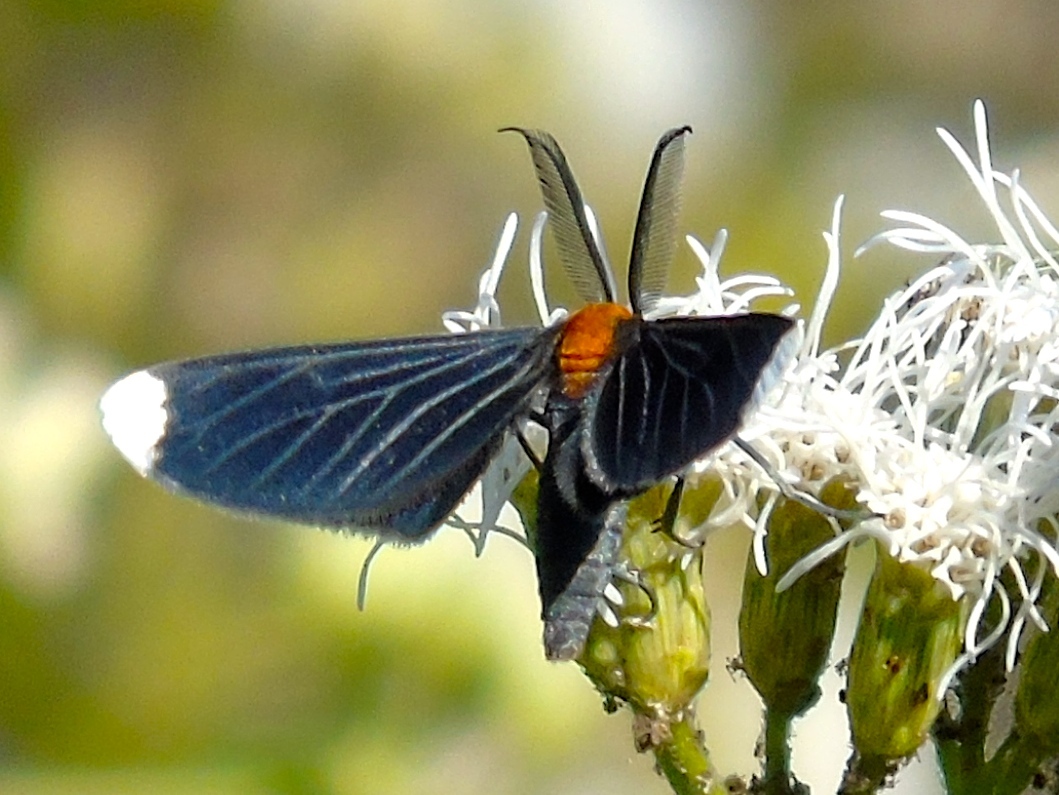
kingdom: Animalia
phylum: Arthropoda
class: Insecta
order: Lepidoptera
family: Geometridae
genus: Melanchroia
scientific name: Melanchroia chephise
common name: White-tipped black
